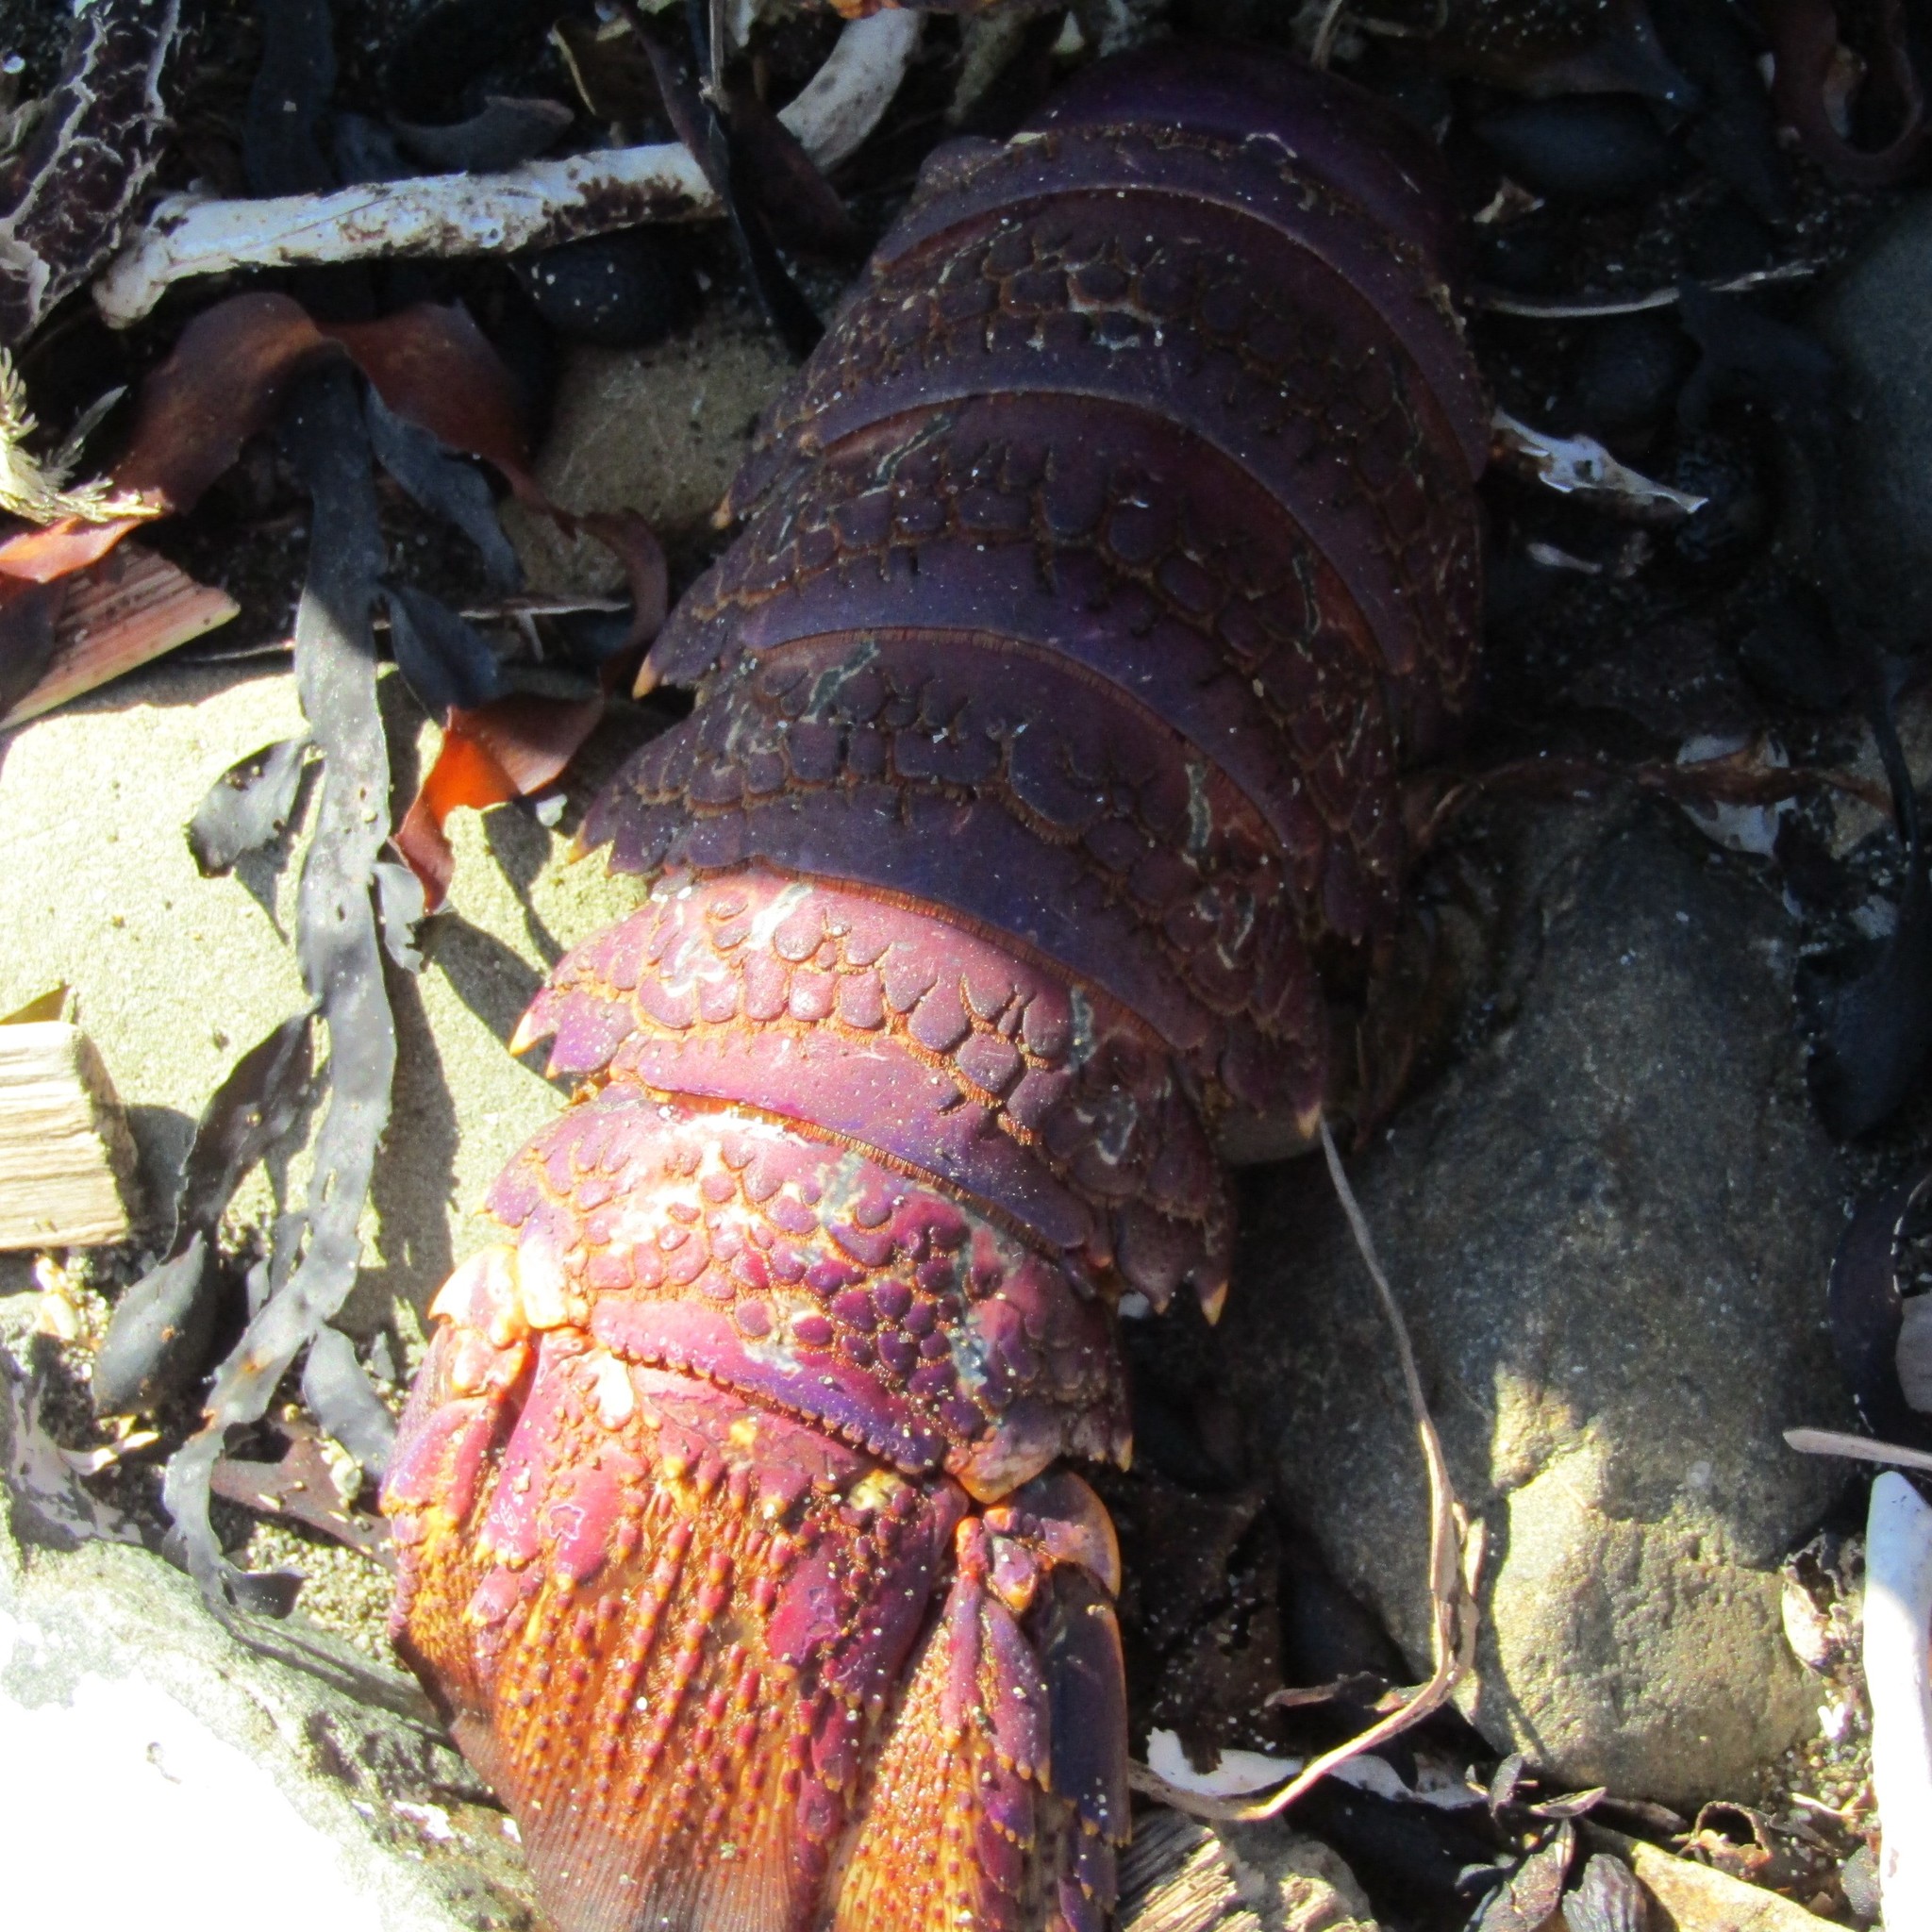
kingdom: Animalia
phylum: Arthropoda
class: Malacostraca
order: Decapoda
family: Palinuridae
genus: Jasus
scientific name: Jasus edwardsii
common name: Red rock lobster
